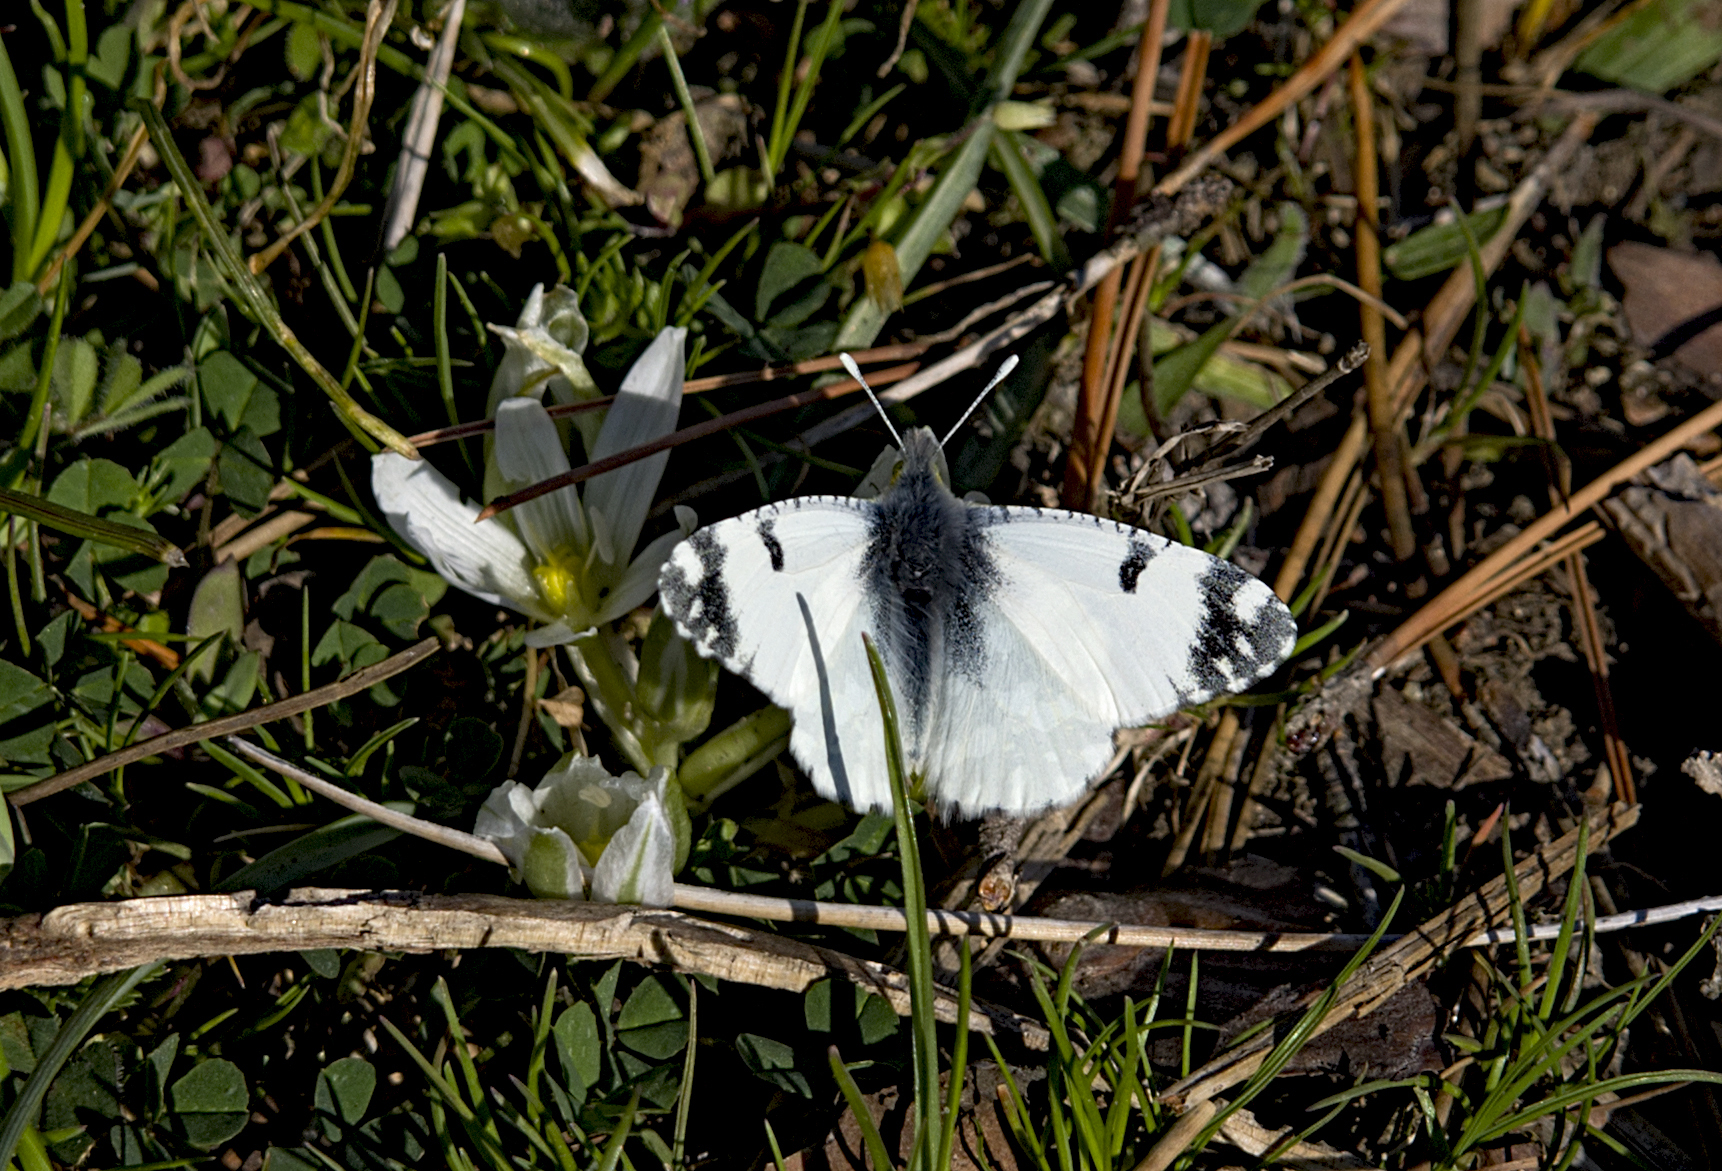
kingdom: Animalia
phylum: Arthropoda
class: Insecta
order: Lepidoptera
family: Pieridae
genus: Euchloe
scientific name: Euchloe ausonia
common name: Eastern dappled white
